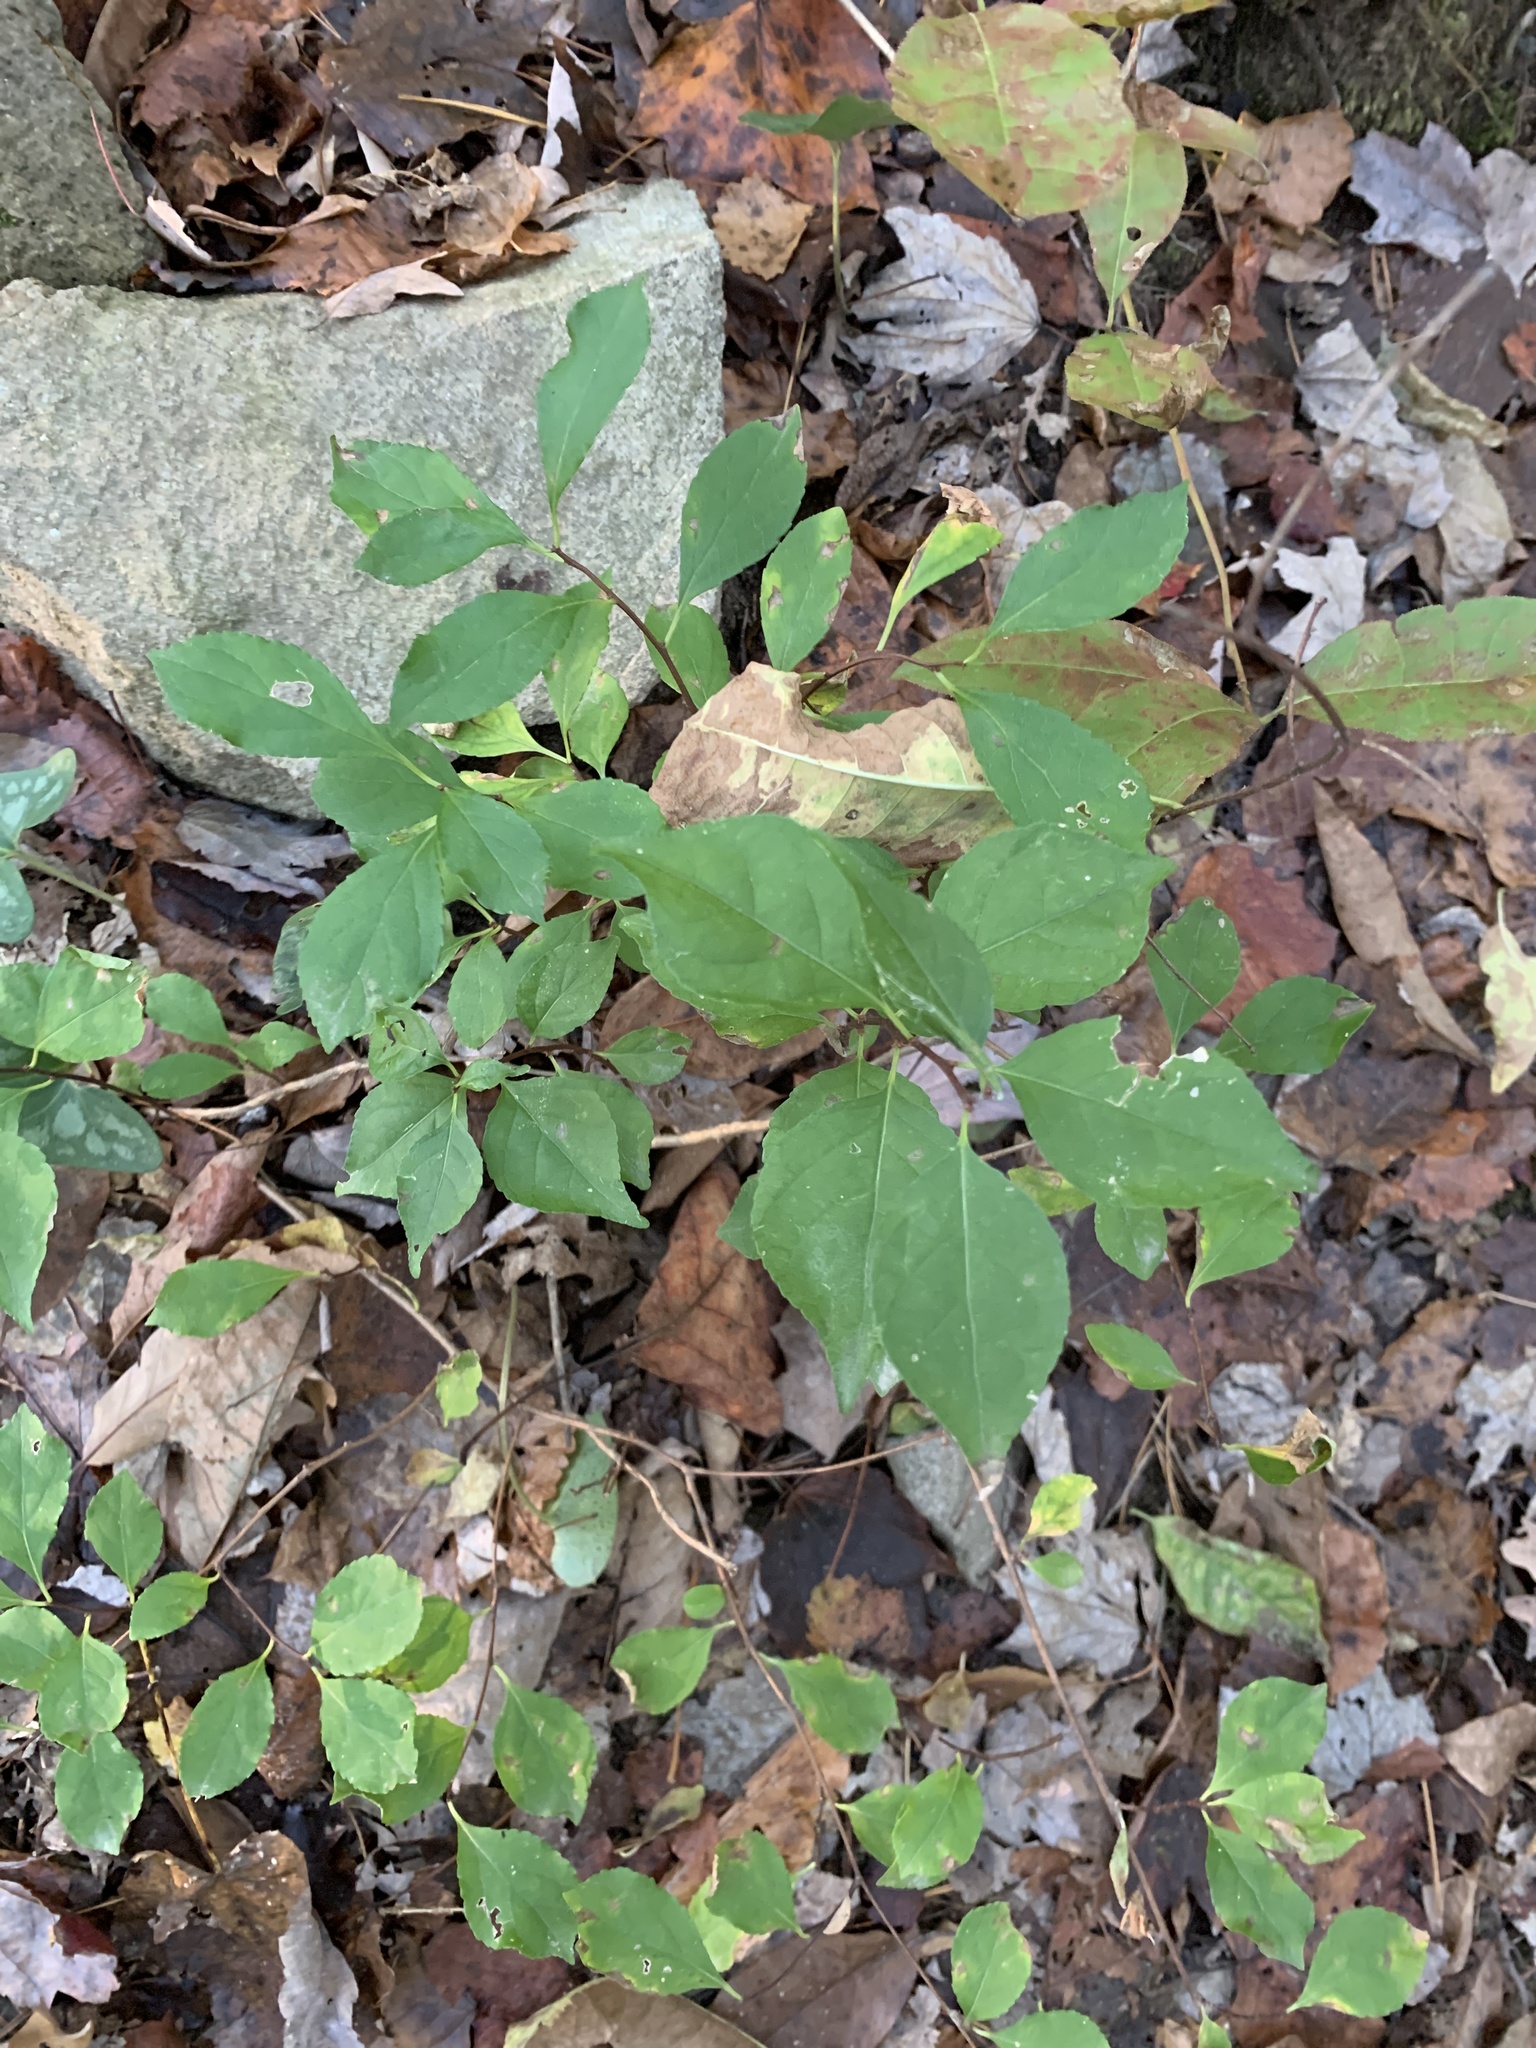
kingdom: Plantae
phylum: Tracheophyta
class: Magnoliopsida
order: Celastrales
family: Celastraceae
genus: Celastrus
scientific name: Celastrus orbiculatus
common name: Oriental bittersweet
